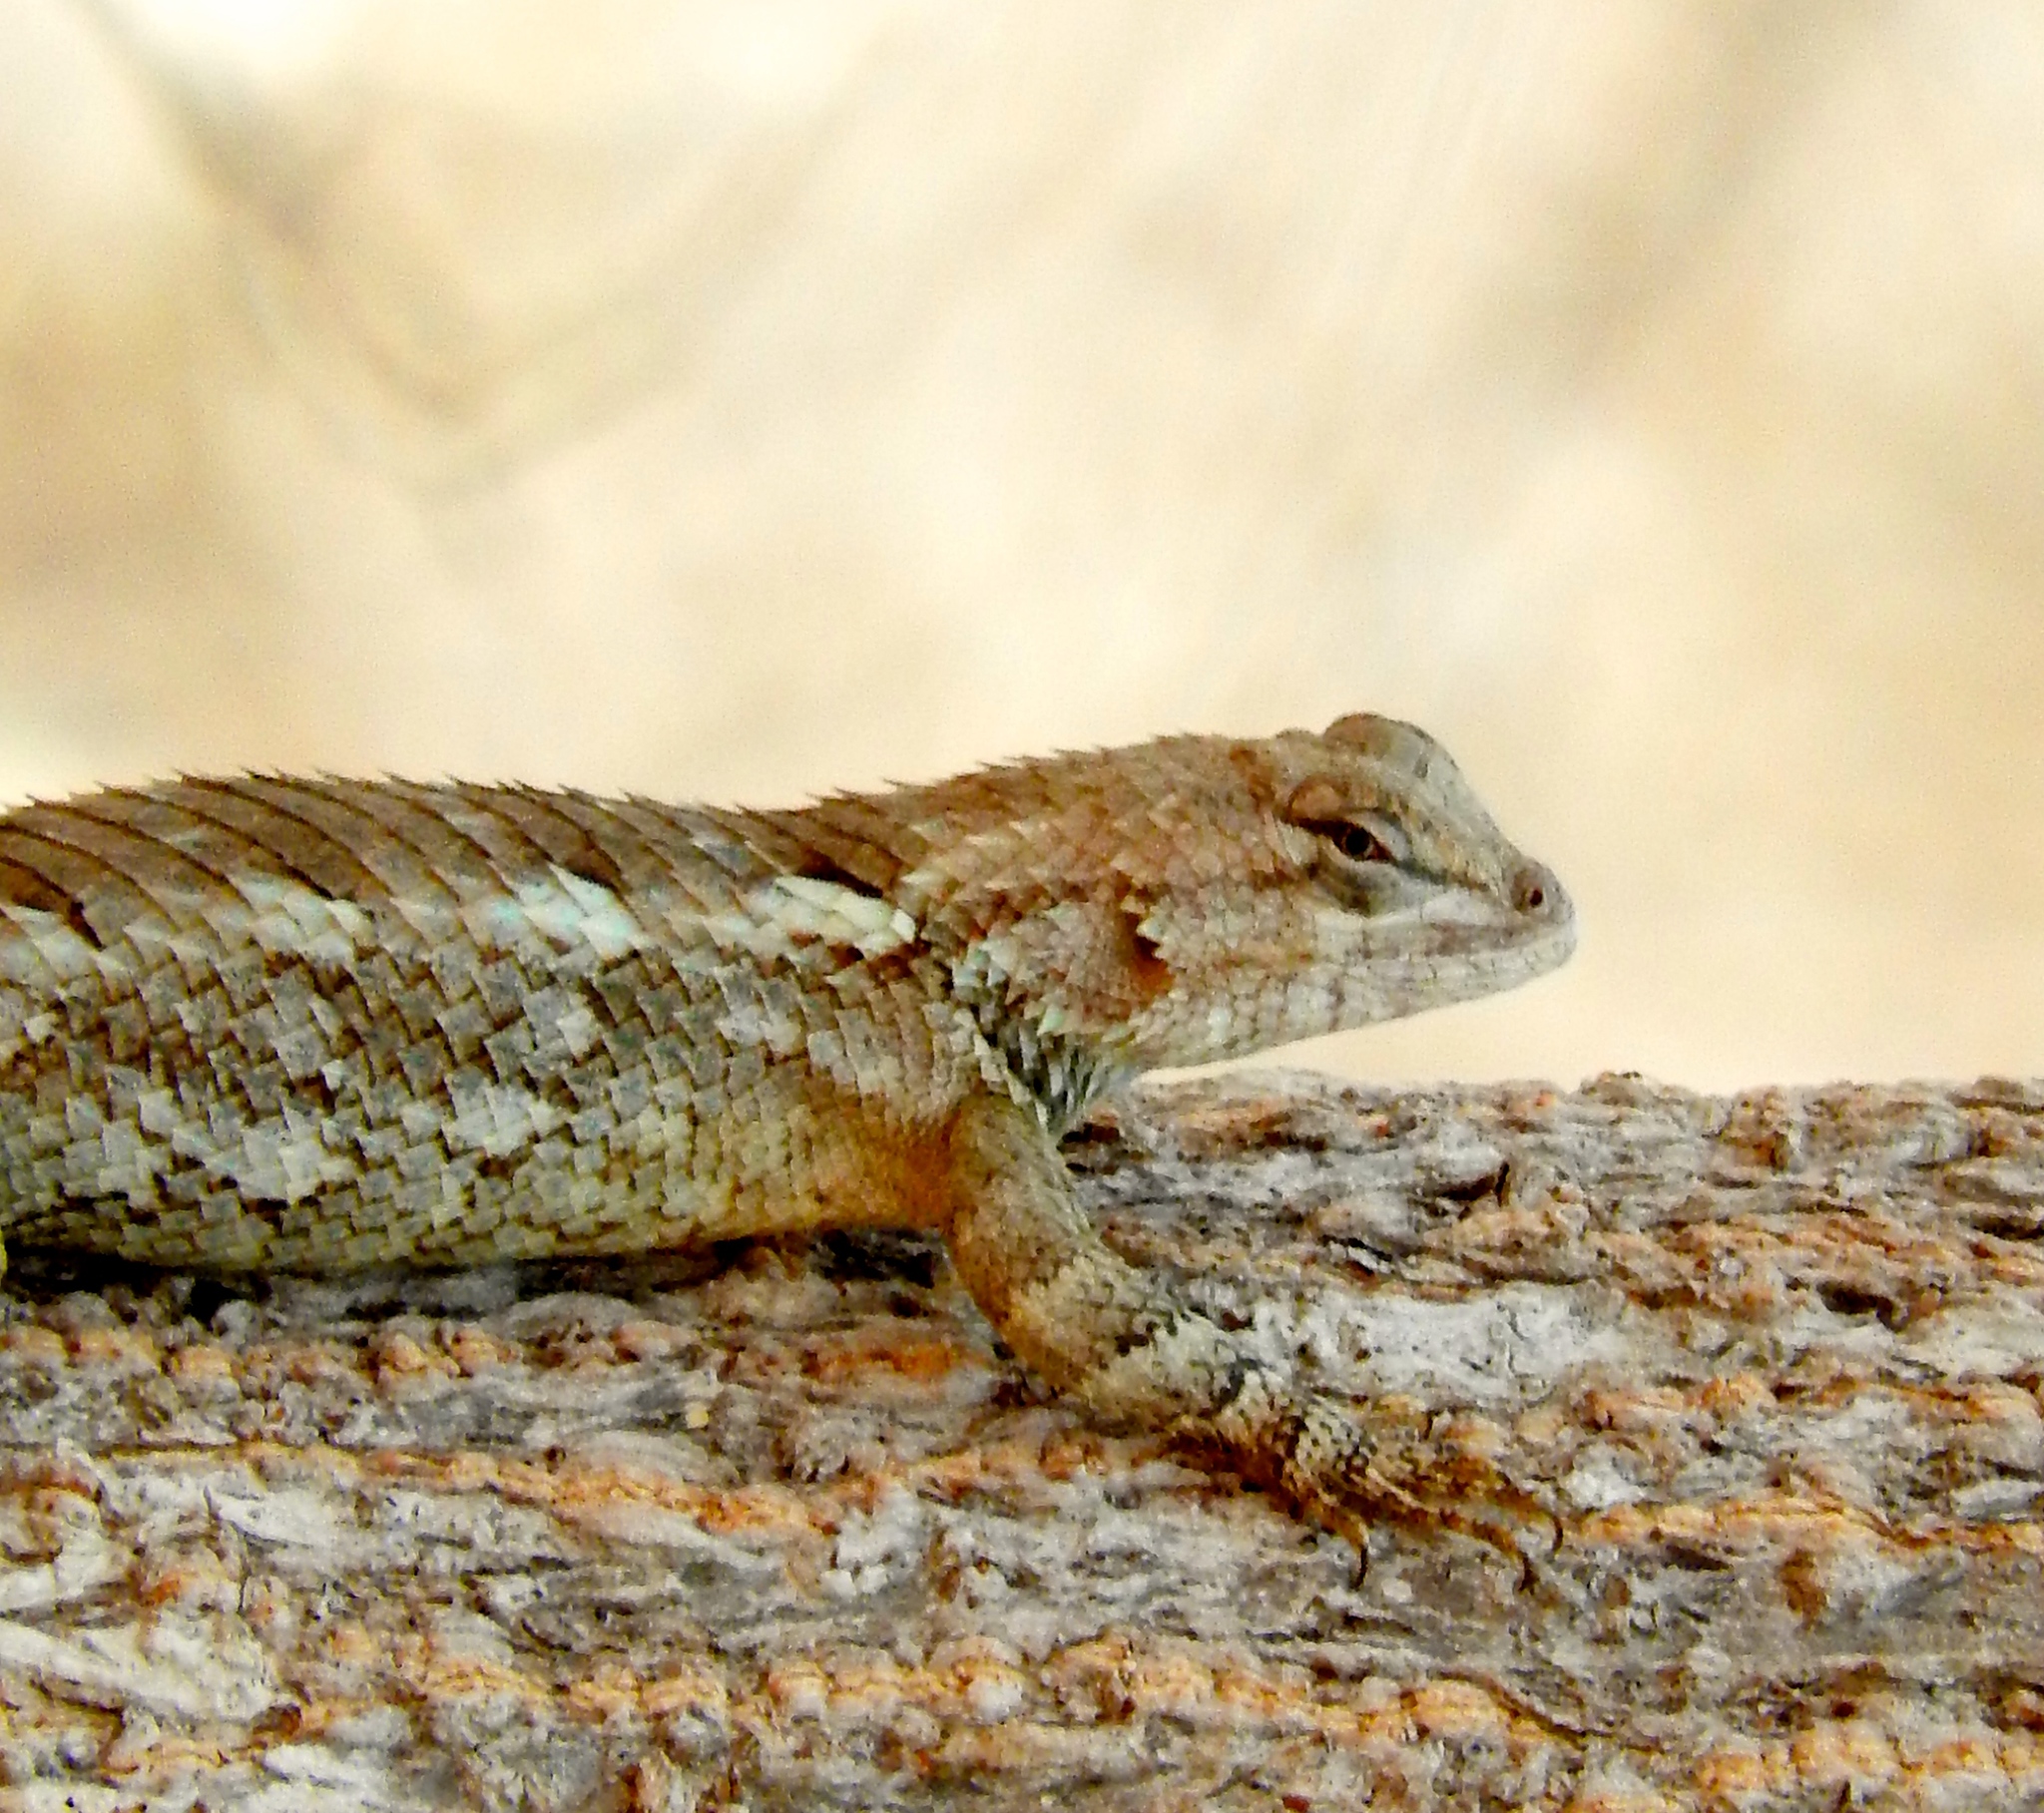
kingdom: Animalia
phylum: Chordata
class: Squamata
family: Phrynosomatidae
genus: Sceloporus
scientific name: Sceloporus clarkii
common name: Clark's spiny lizard
